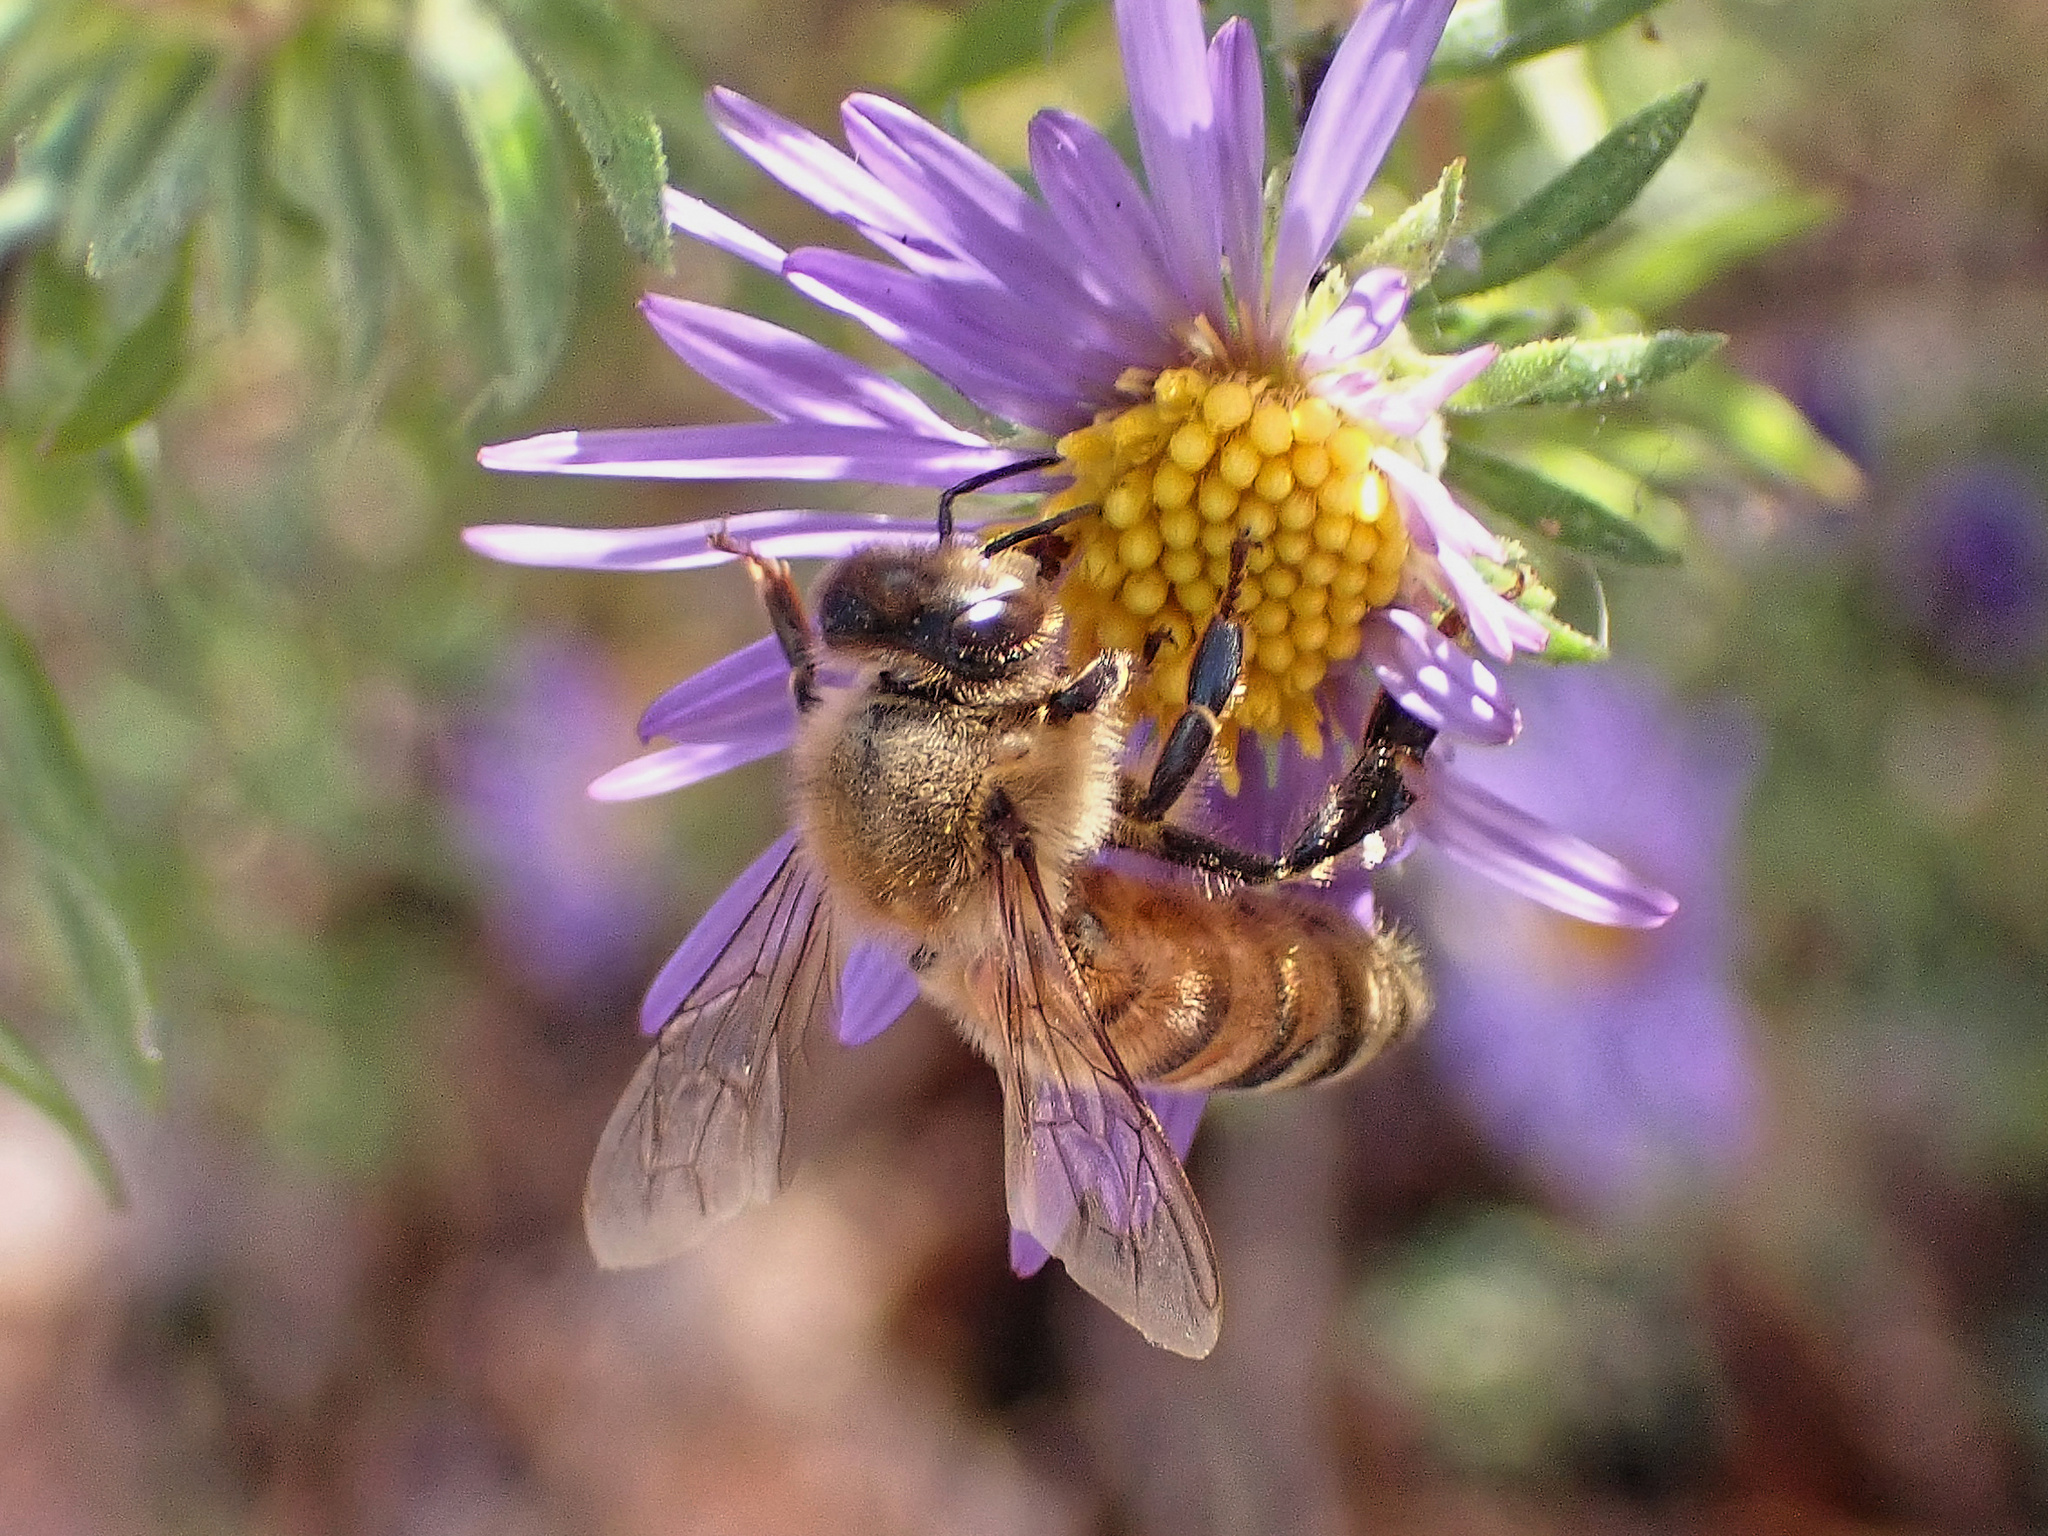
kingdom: Animalia
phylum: Arthropoda
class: Insecta
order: Hymenoptera
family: Apidae
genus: Apis
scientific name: Apis mellifera
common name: Honey bee
